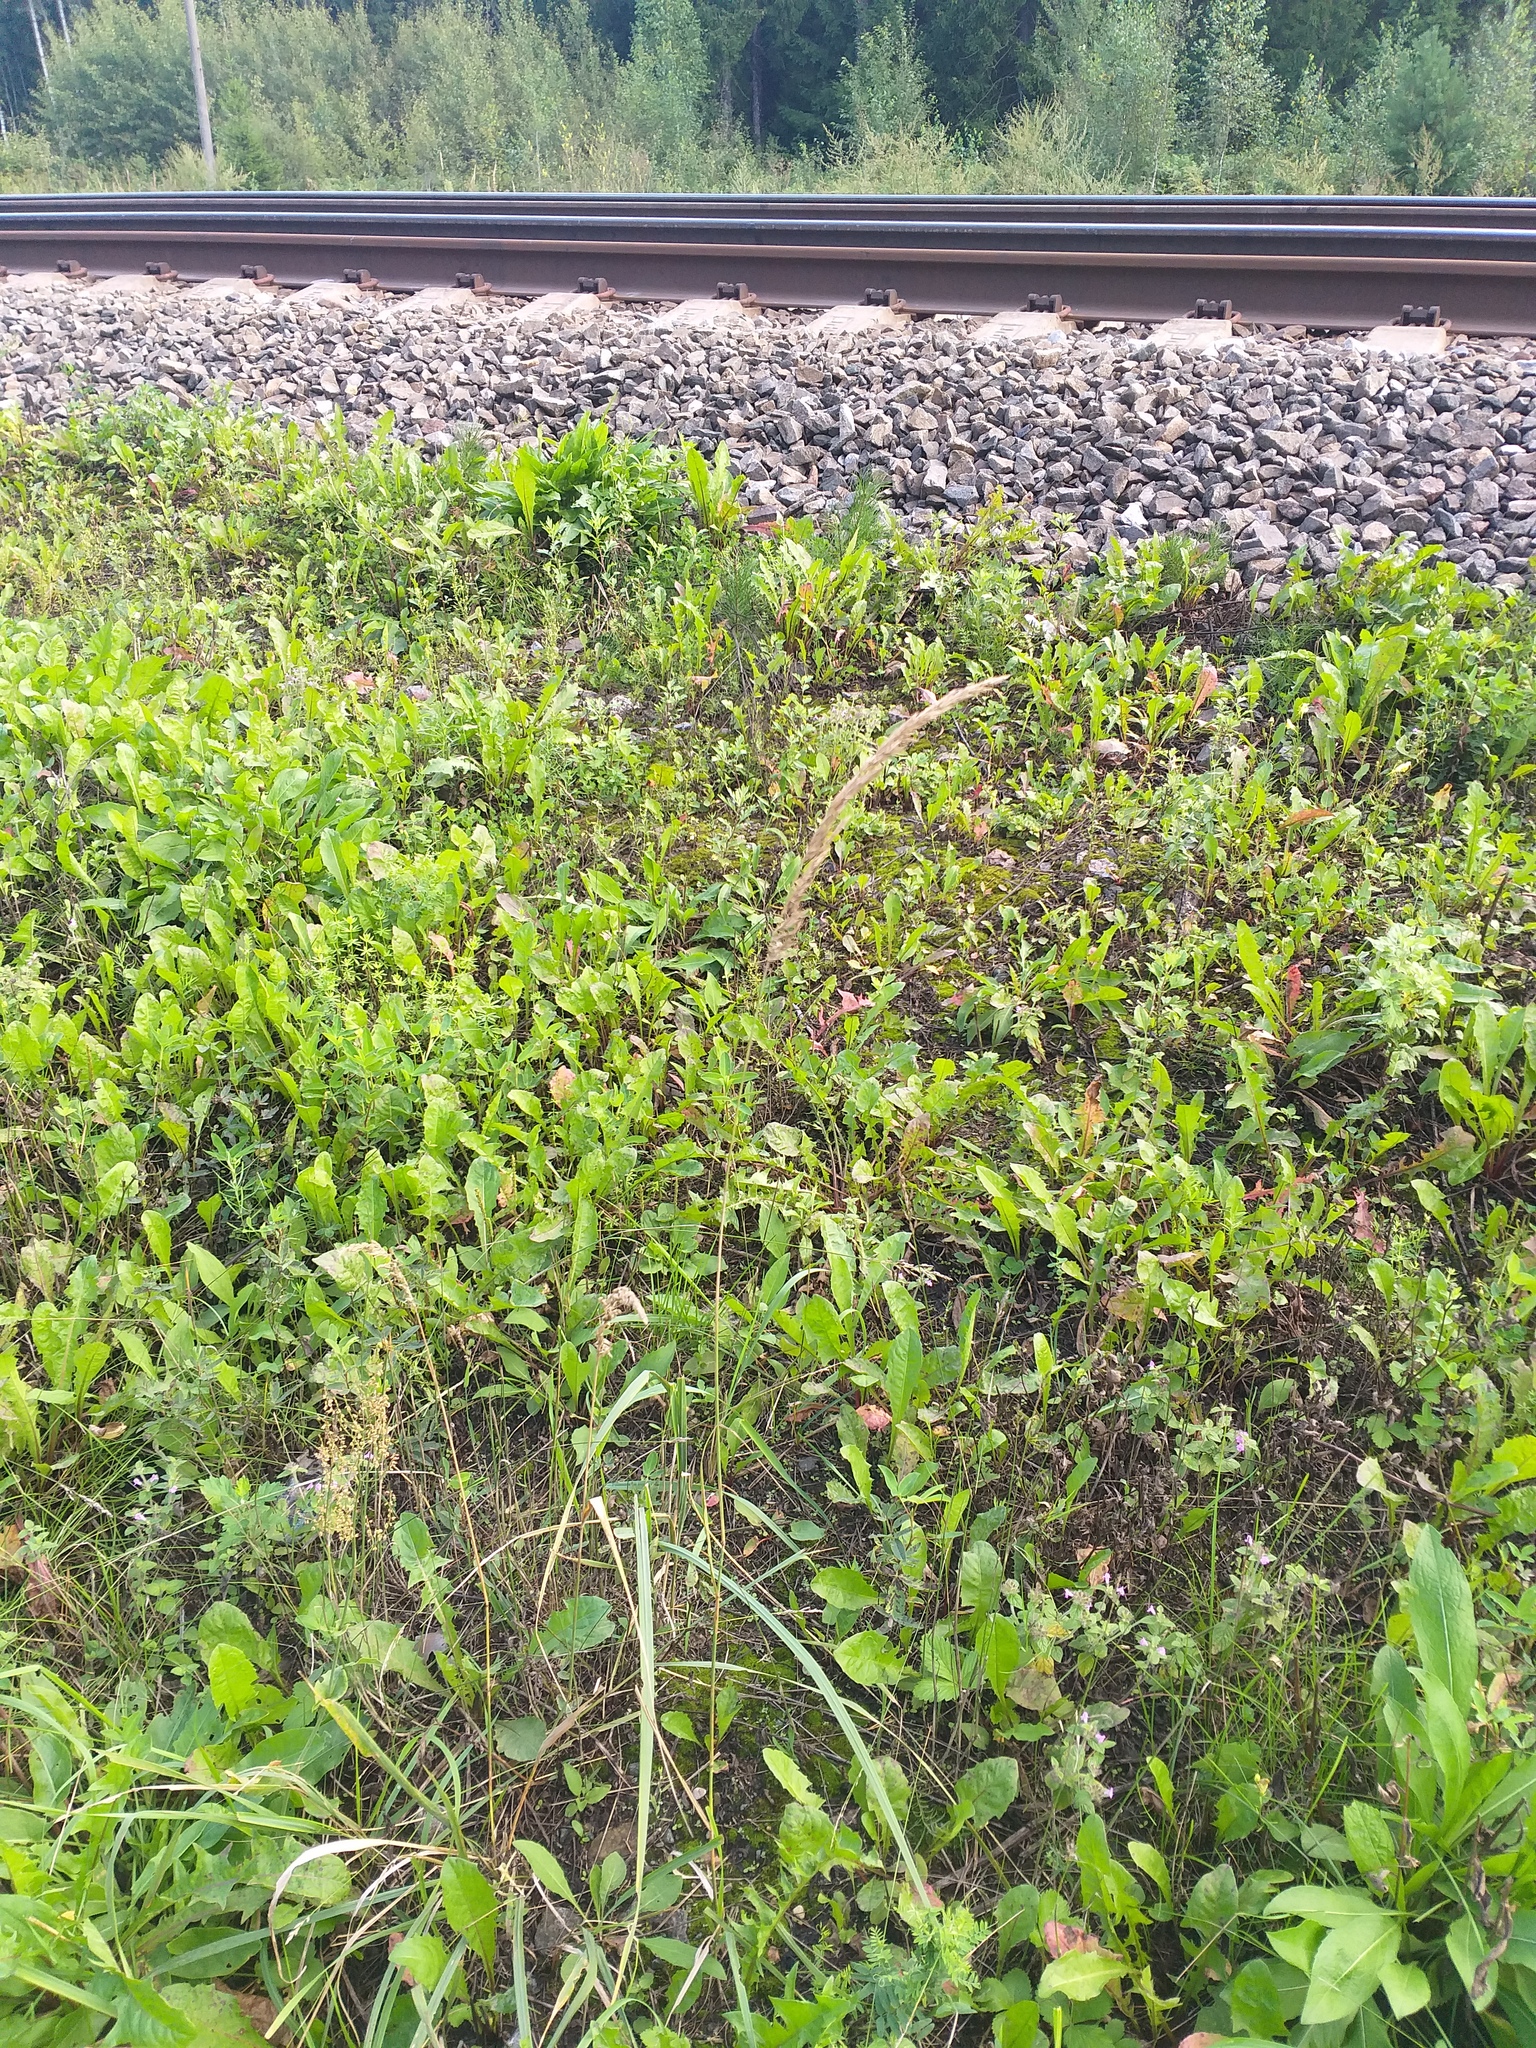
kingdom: Plantae
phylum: Tracheophyta
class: Liliopsida
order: Poales
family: Poaceae
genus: Calamagrostis
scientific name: Calamagrostis epigejos
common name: Wood small-reed
